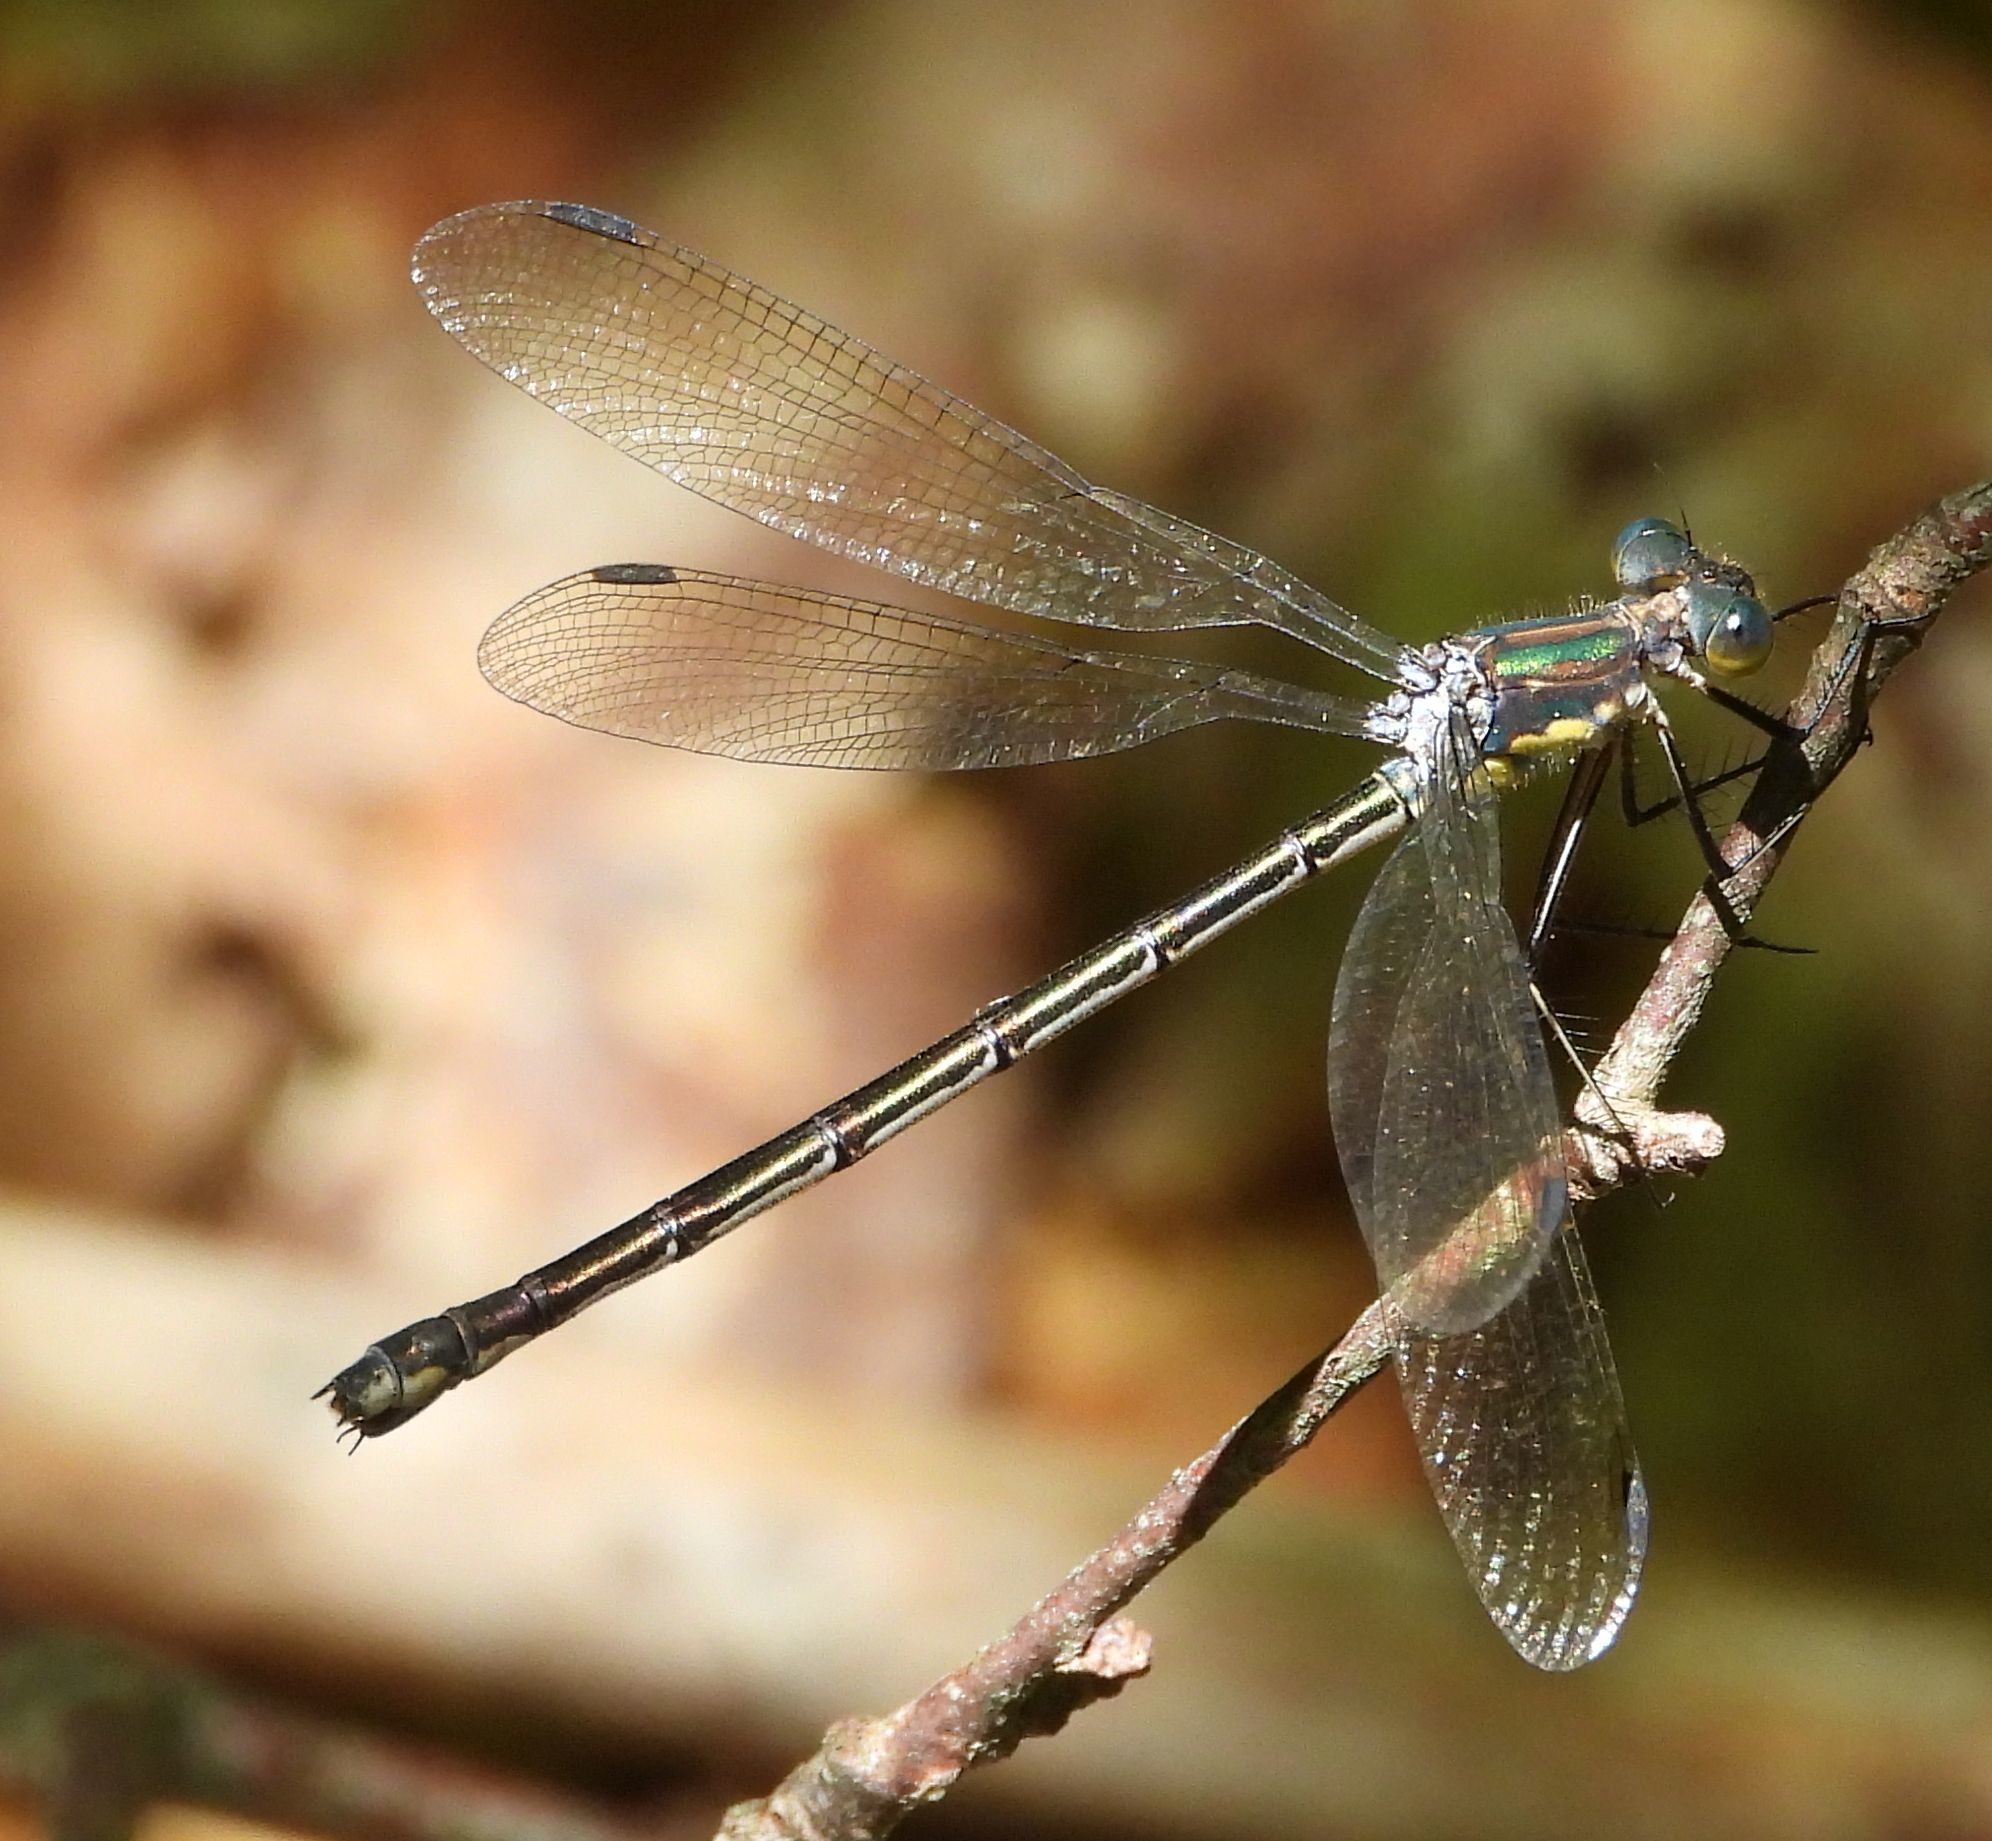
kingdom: Animalia
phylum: Arthropoda
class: Insecta
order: Odonata
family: Lestidae
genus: Lestes
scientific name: Lestes eurinus
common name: Amber-winged spreadwing
